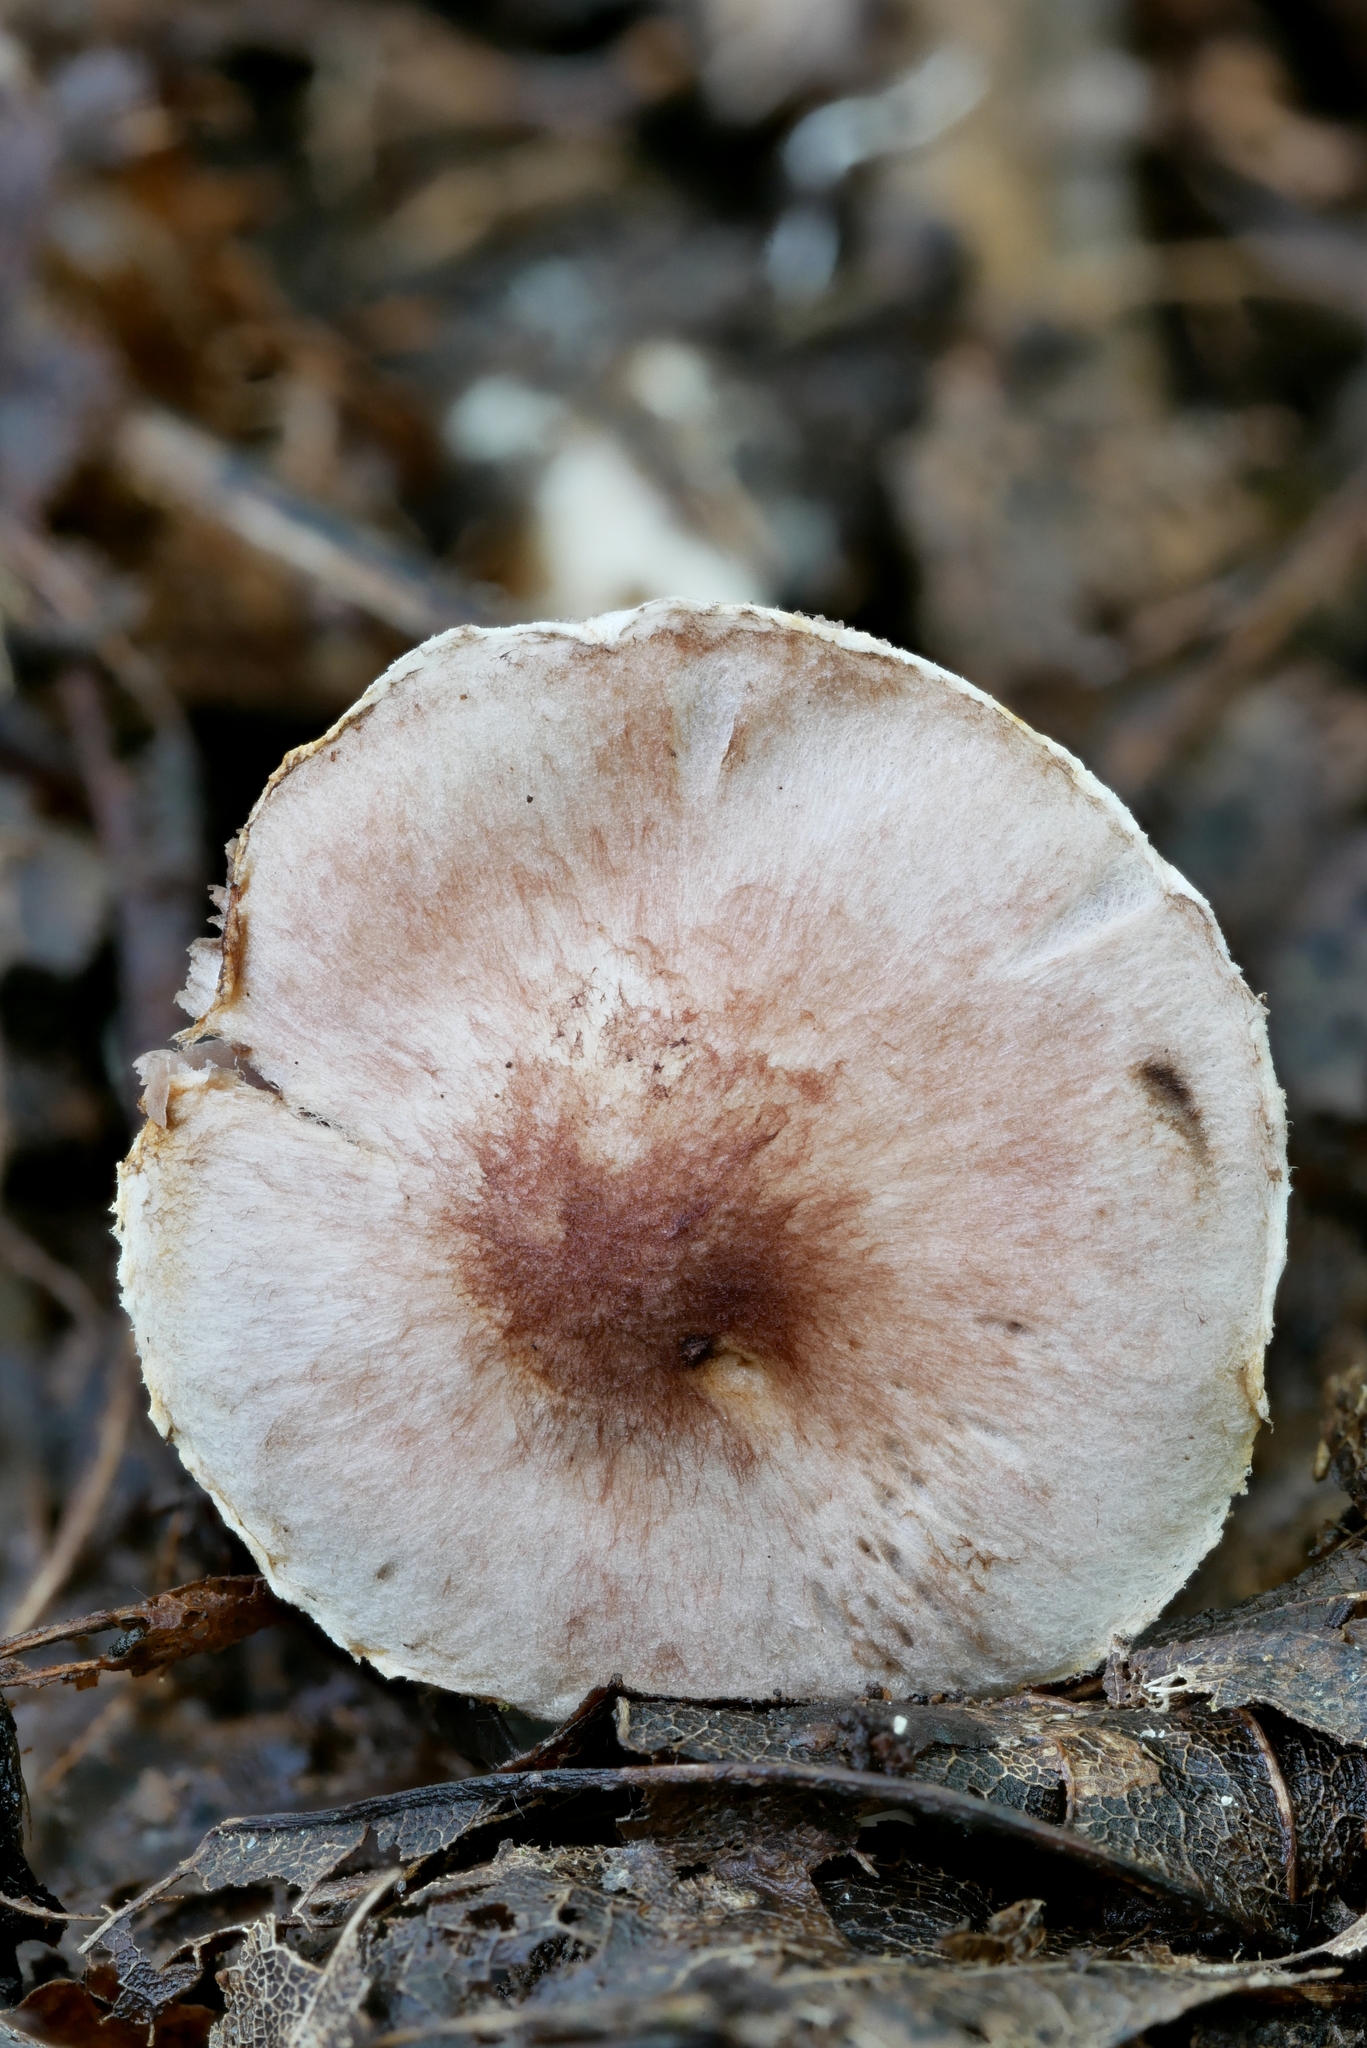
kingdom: Fungi
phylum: Basidiomycota
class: Agaricomycetes
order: Agaricales
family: Agaricaceae
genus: Agaricus
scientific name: Agaricus friesianus
